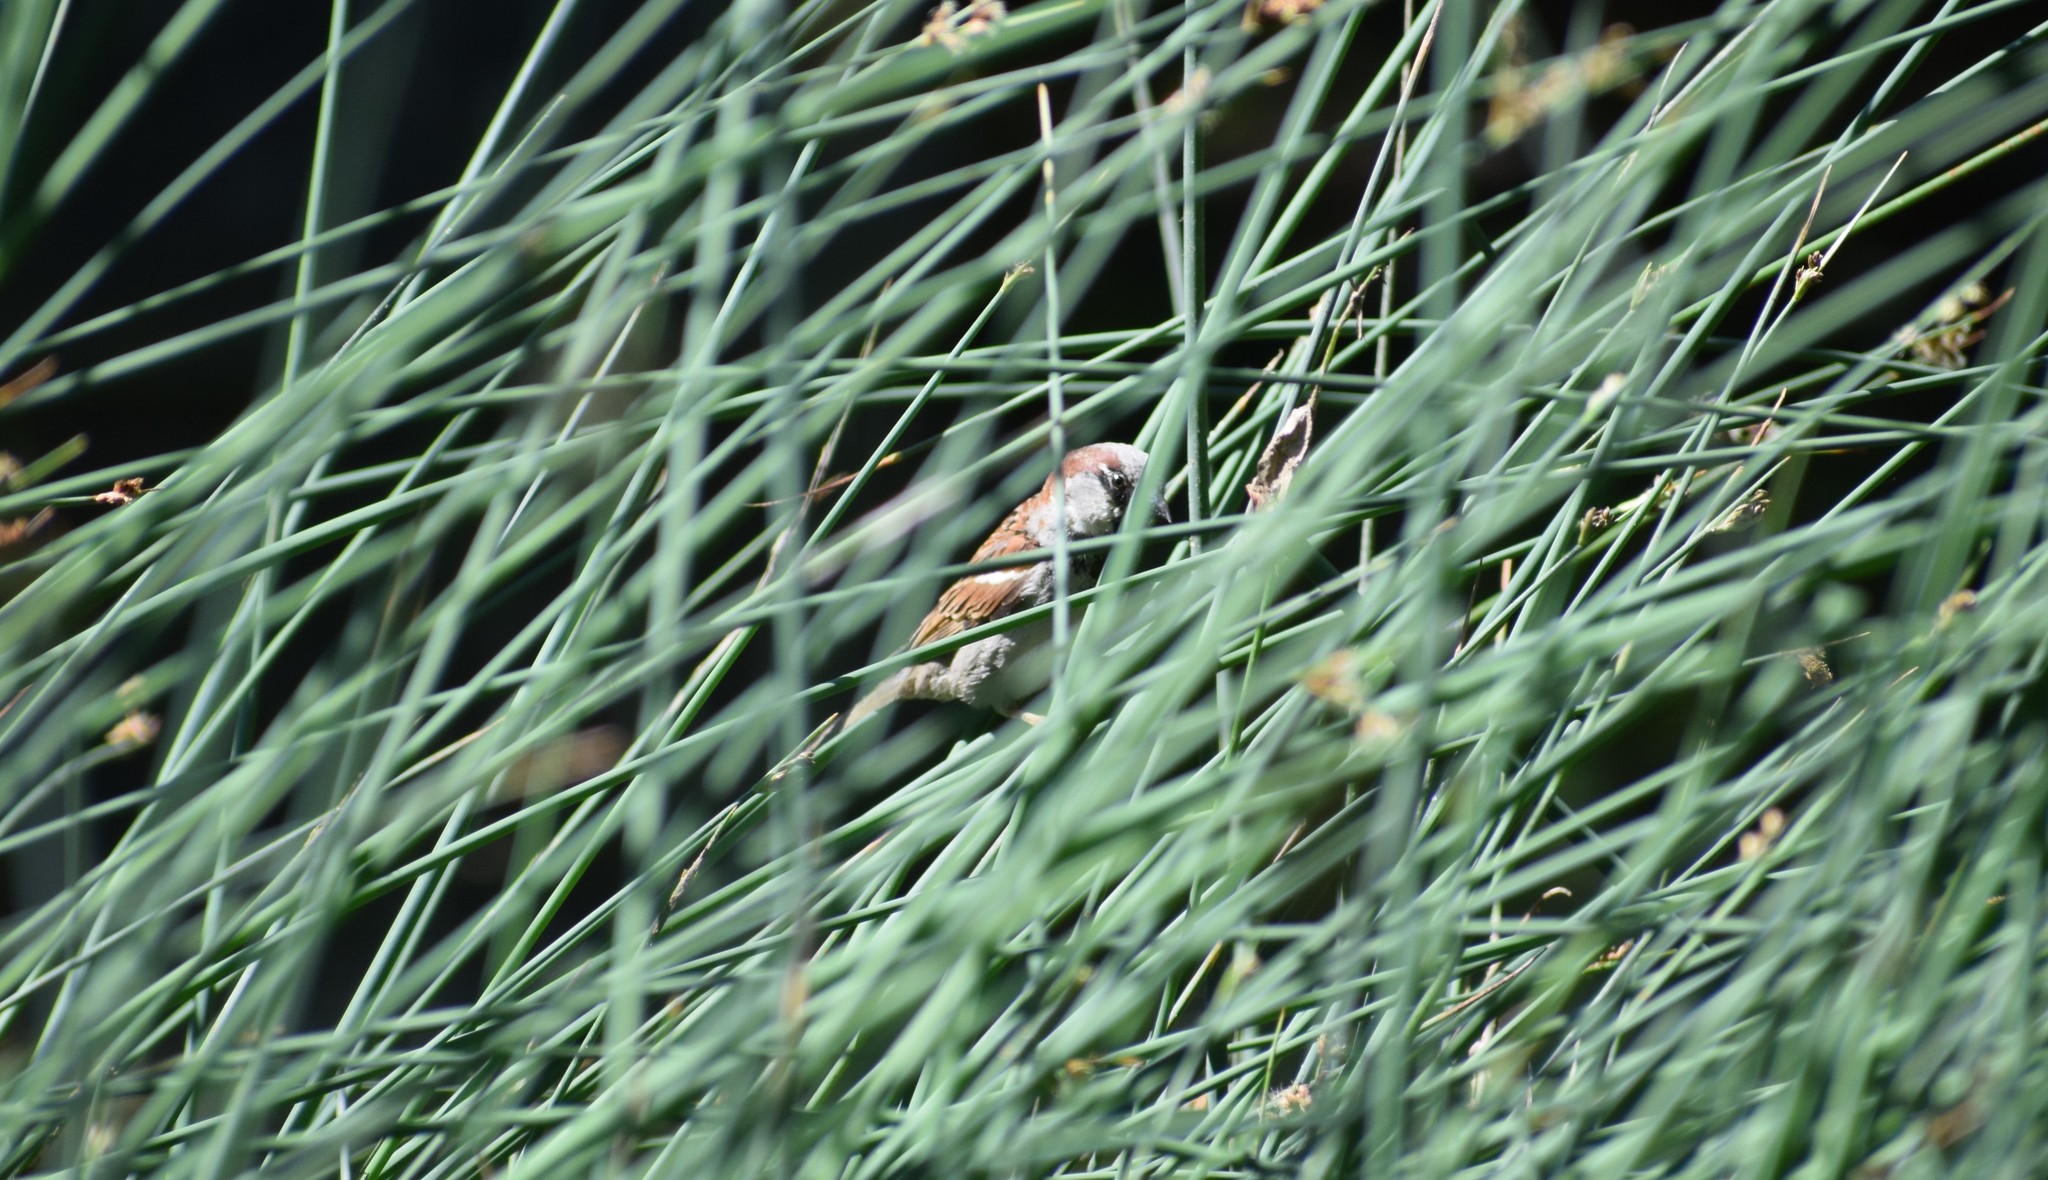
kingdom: Animalia
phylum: Chordata
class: Aves
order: Passeriformes
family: Passeridae
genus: Passer
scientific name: Passer domesticus
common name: House sparrow
